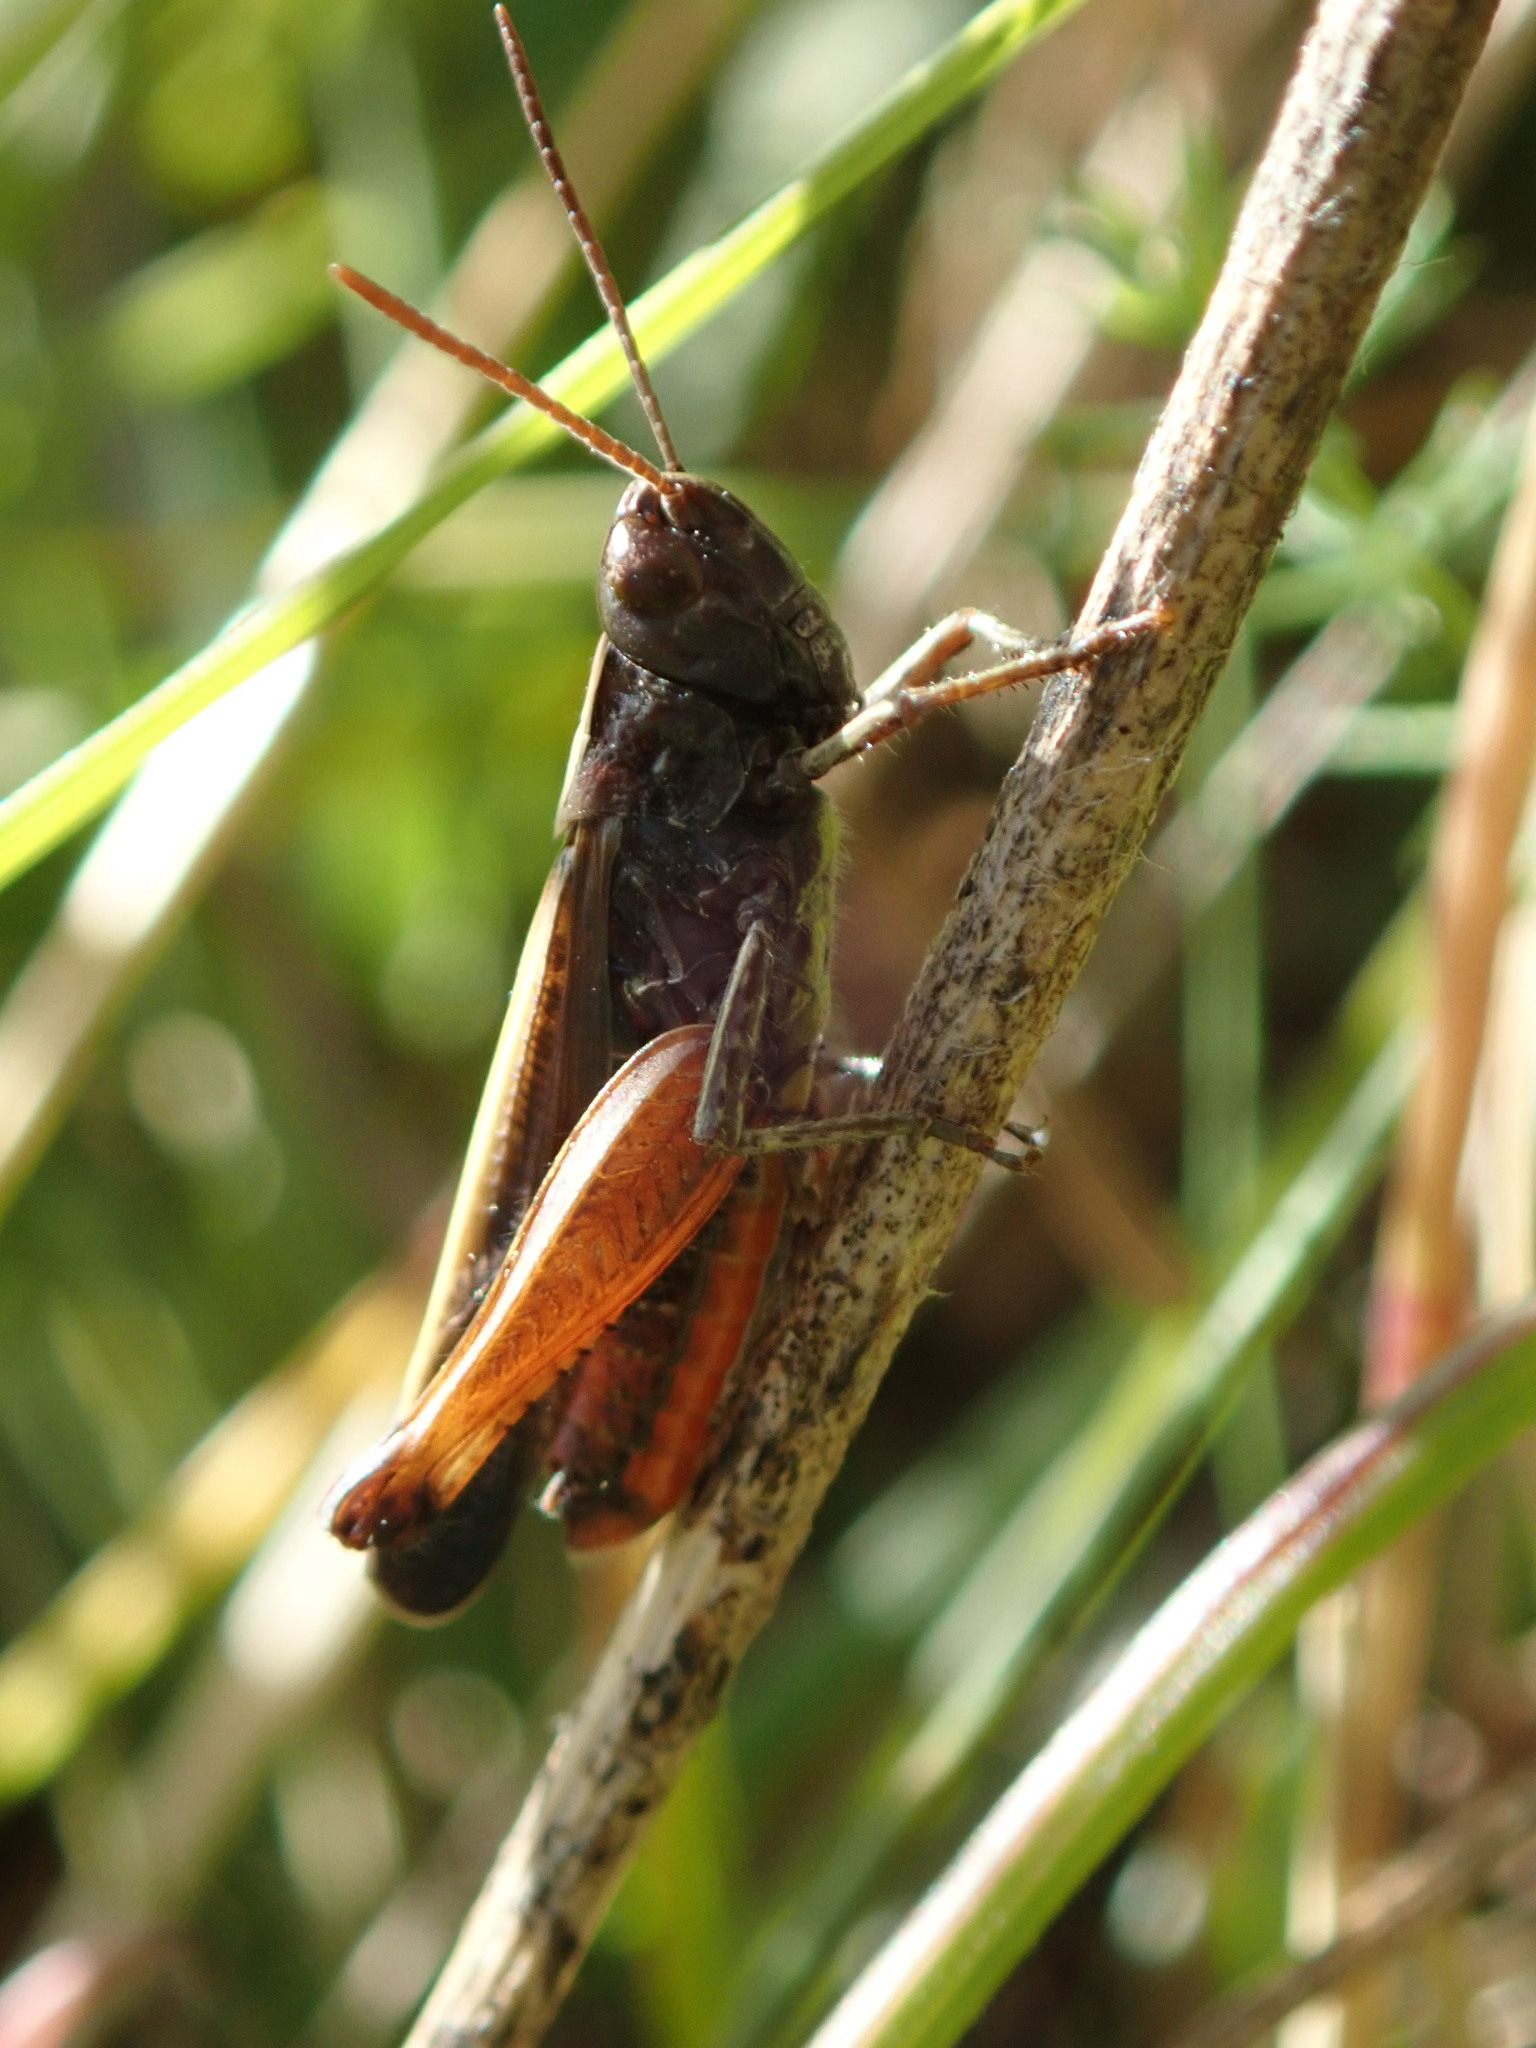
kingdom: Animalia
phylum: Arthropoda
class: Insecta
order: Orthoptera
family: Acrididae
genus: Omocestus
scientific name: Omocestus rufipes
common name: Woodland grasshopper
